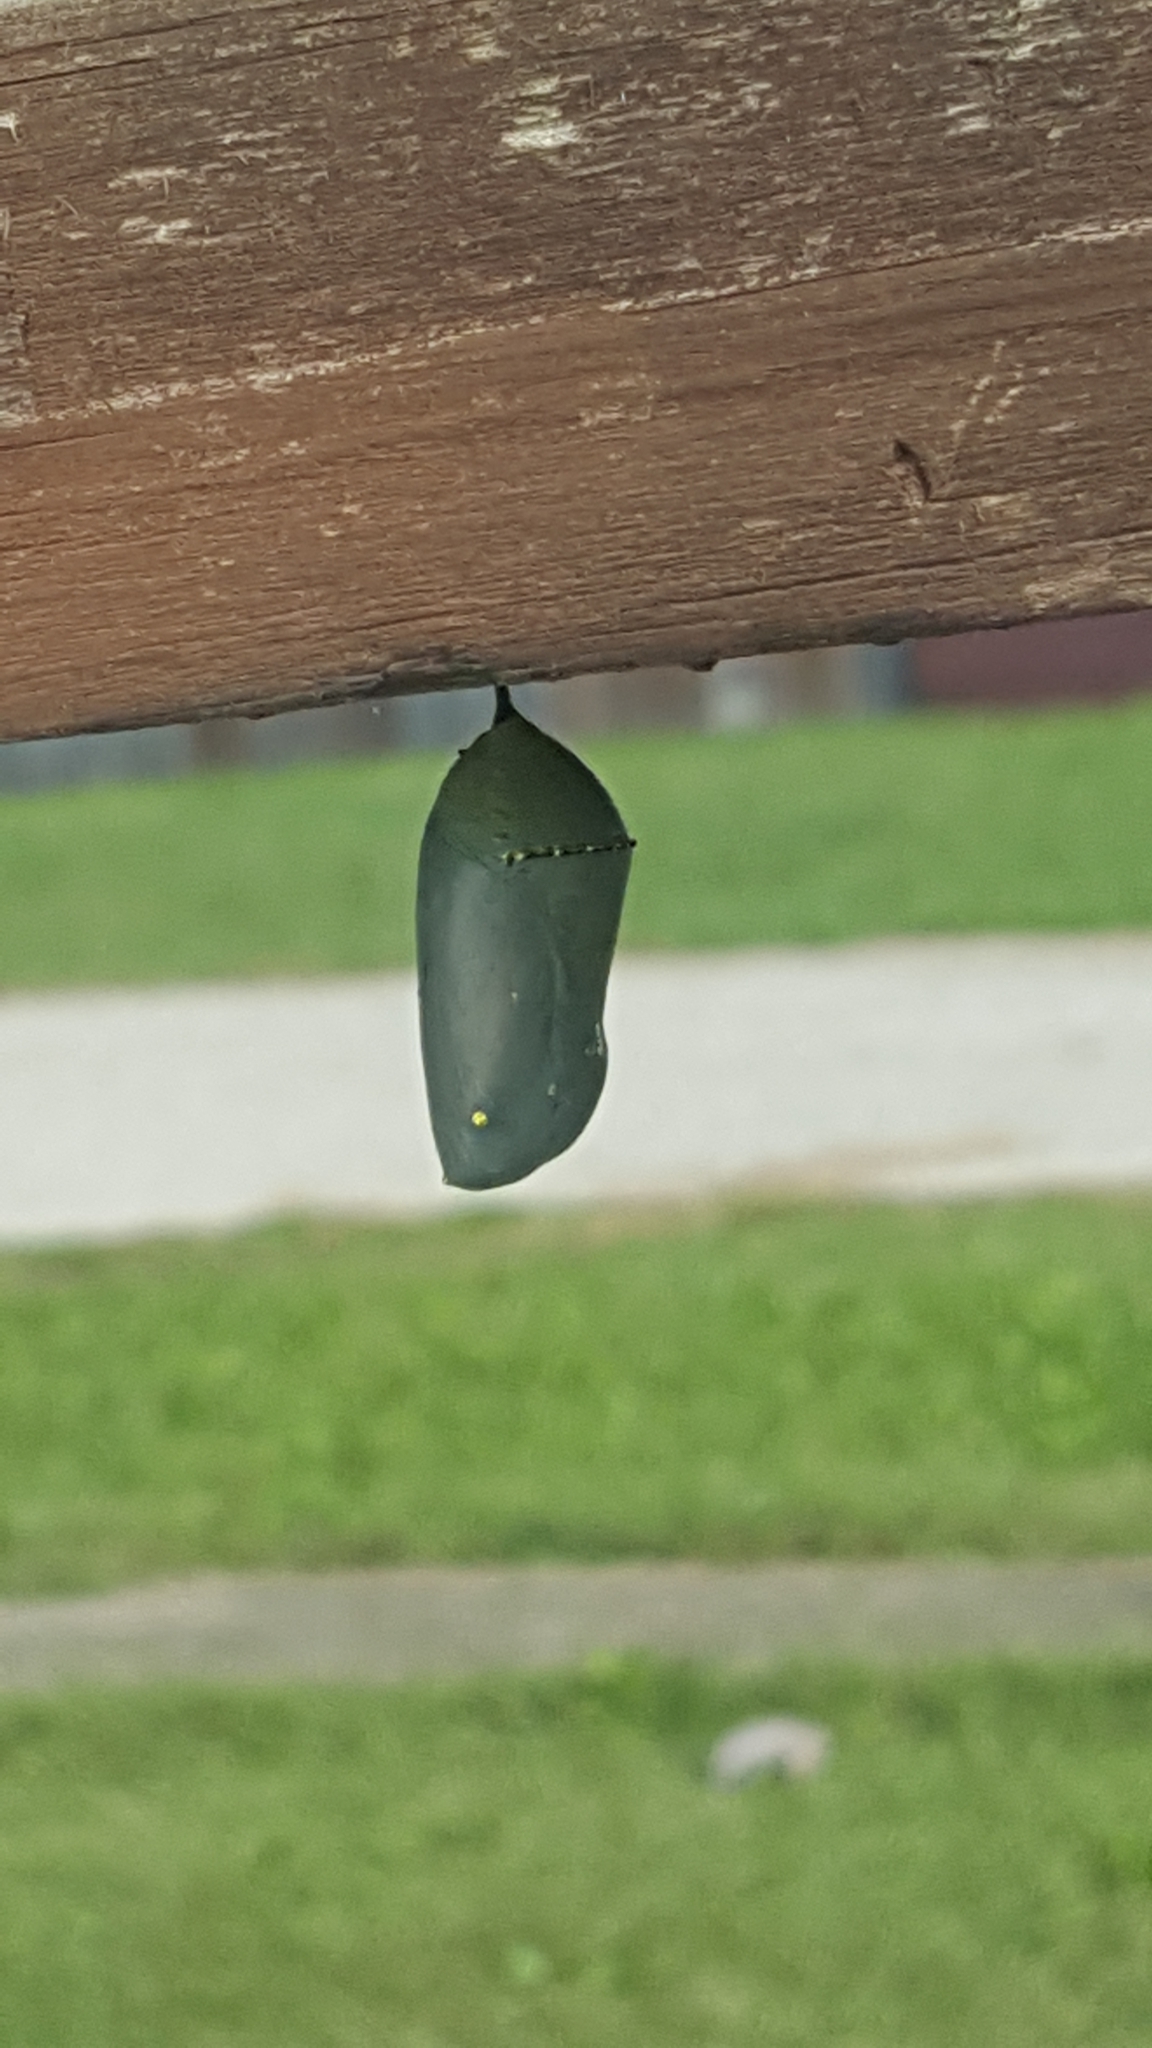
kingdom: Animalia
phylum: Arthropoda
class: Insecta
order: Lepidoptera
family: Nymphalidae
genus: Danaus
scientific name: Danaus plexippus
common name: Monarch
